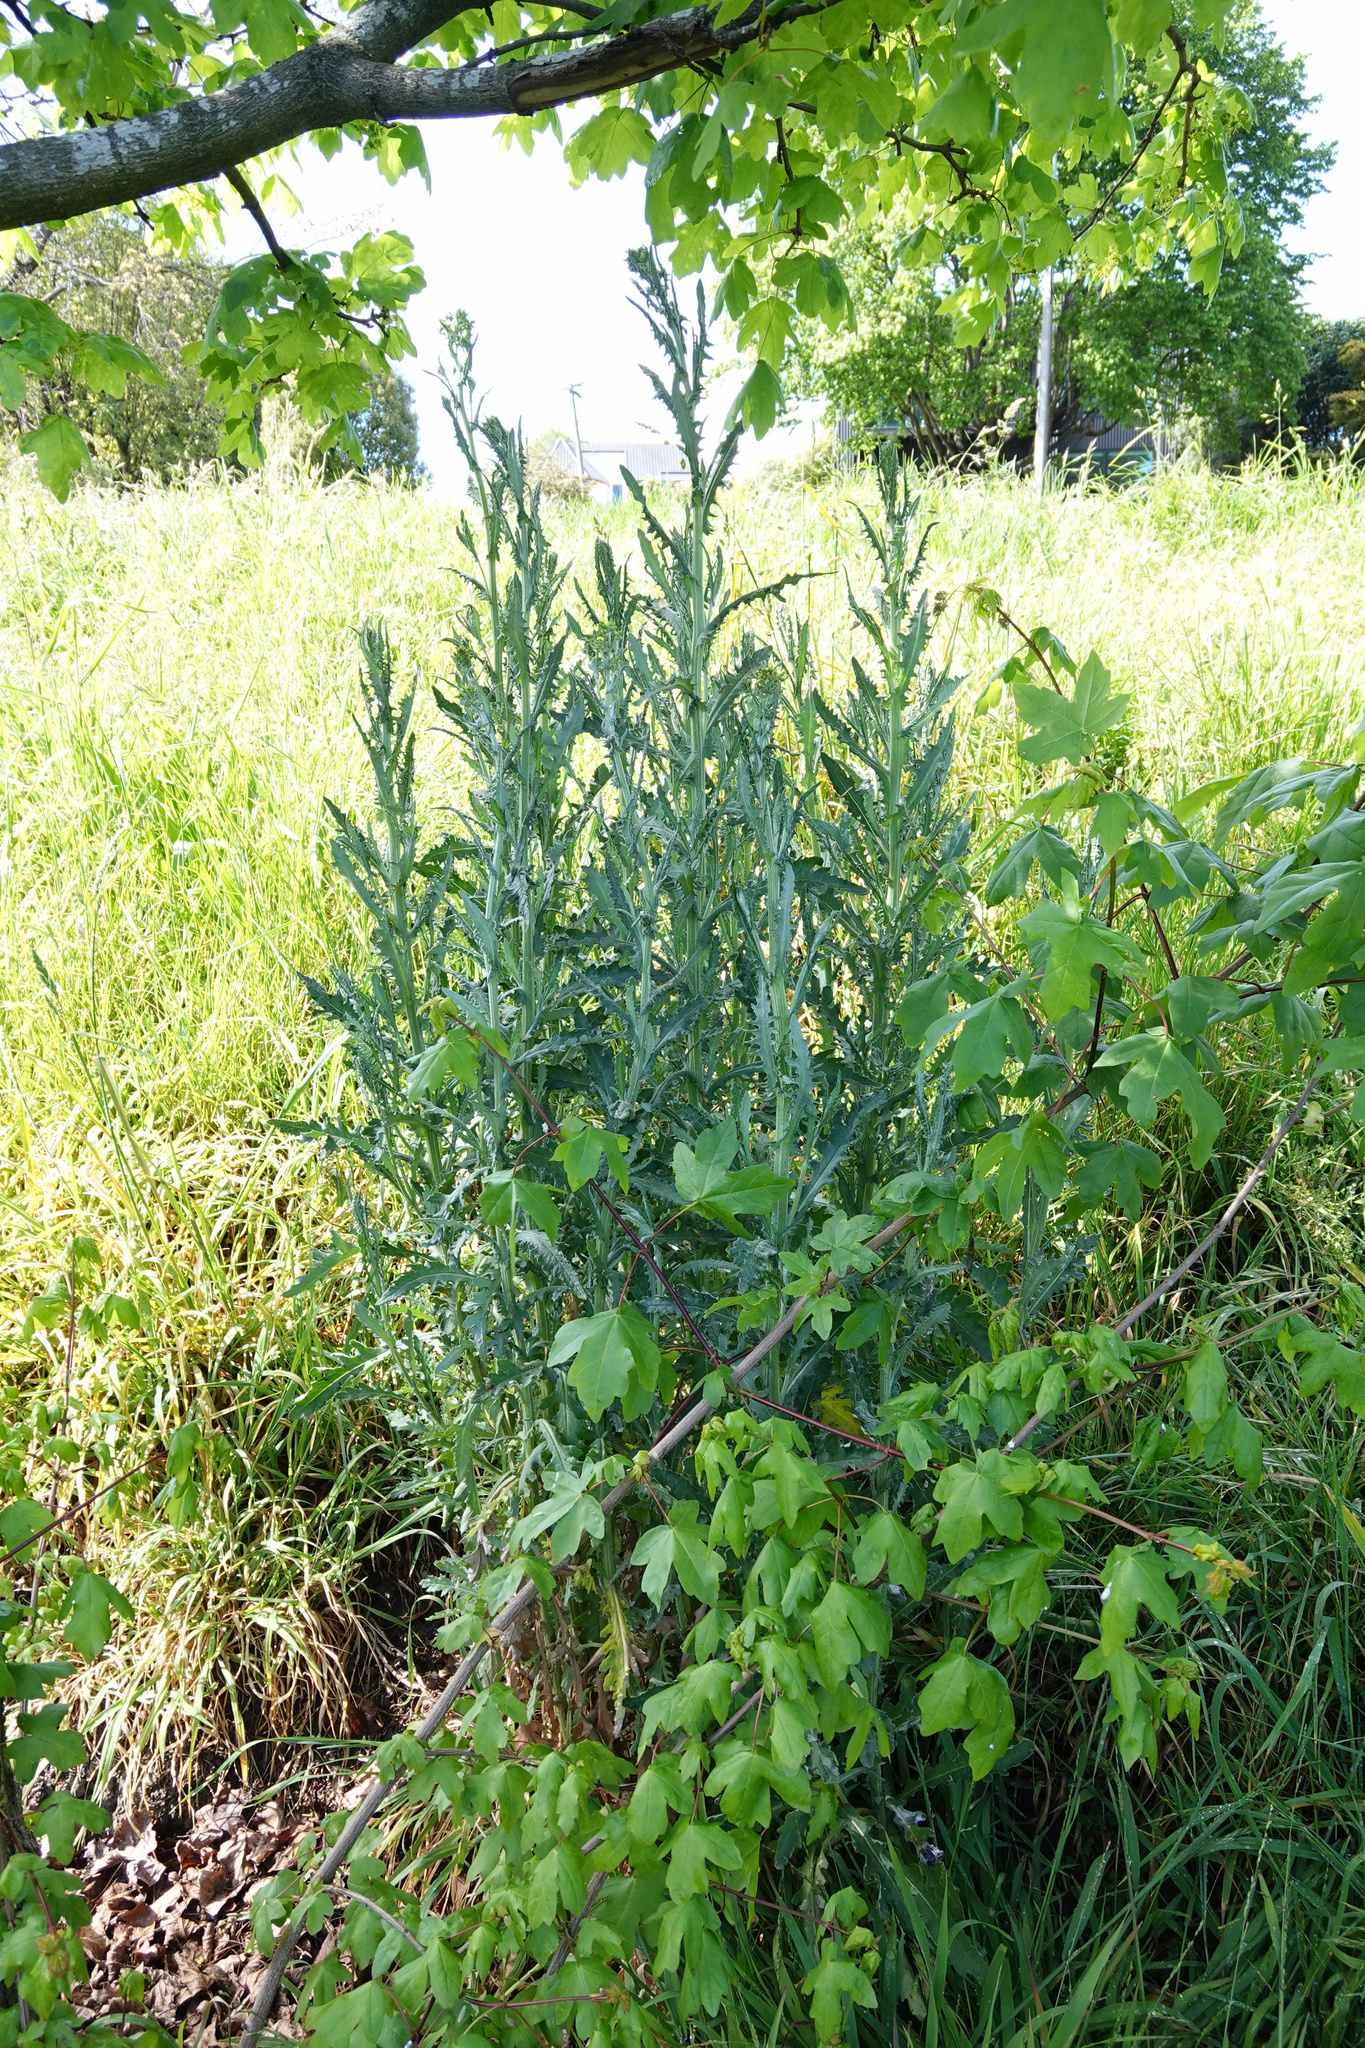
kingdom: Plantae
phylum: Tracheophyta
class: Magnoliopsida
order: Asterales
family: Asteraceae
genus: Senecio
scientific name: Senecio glomeratus
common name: Cutleaf burnweed
